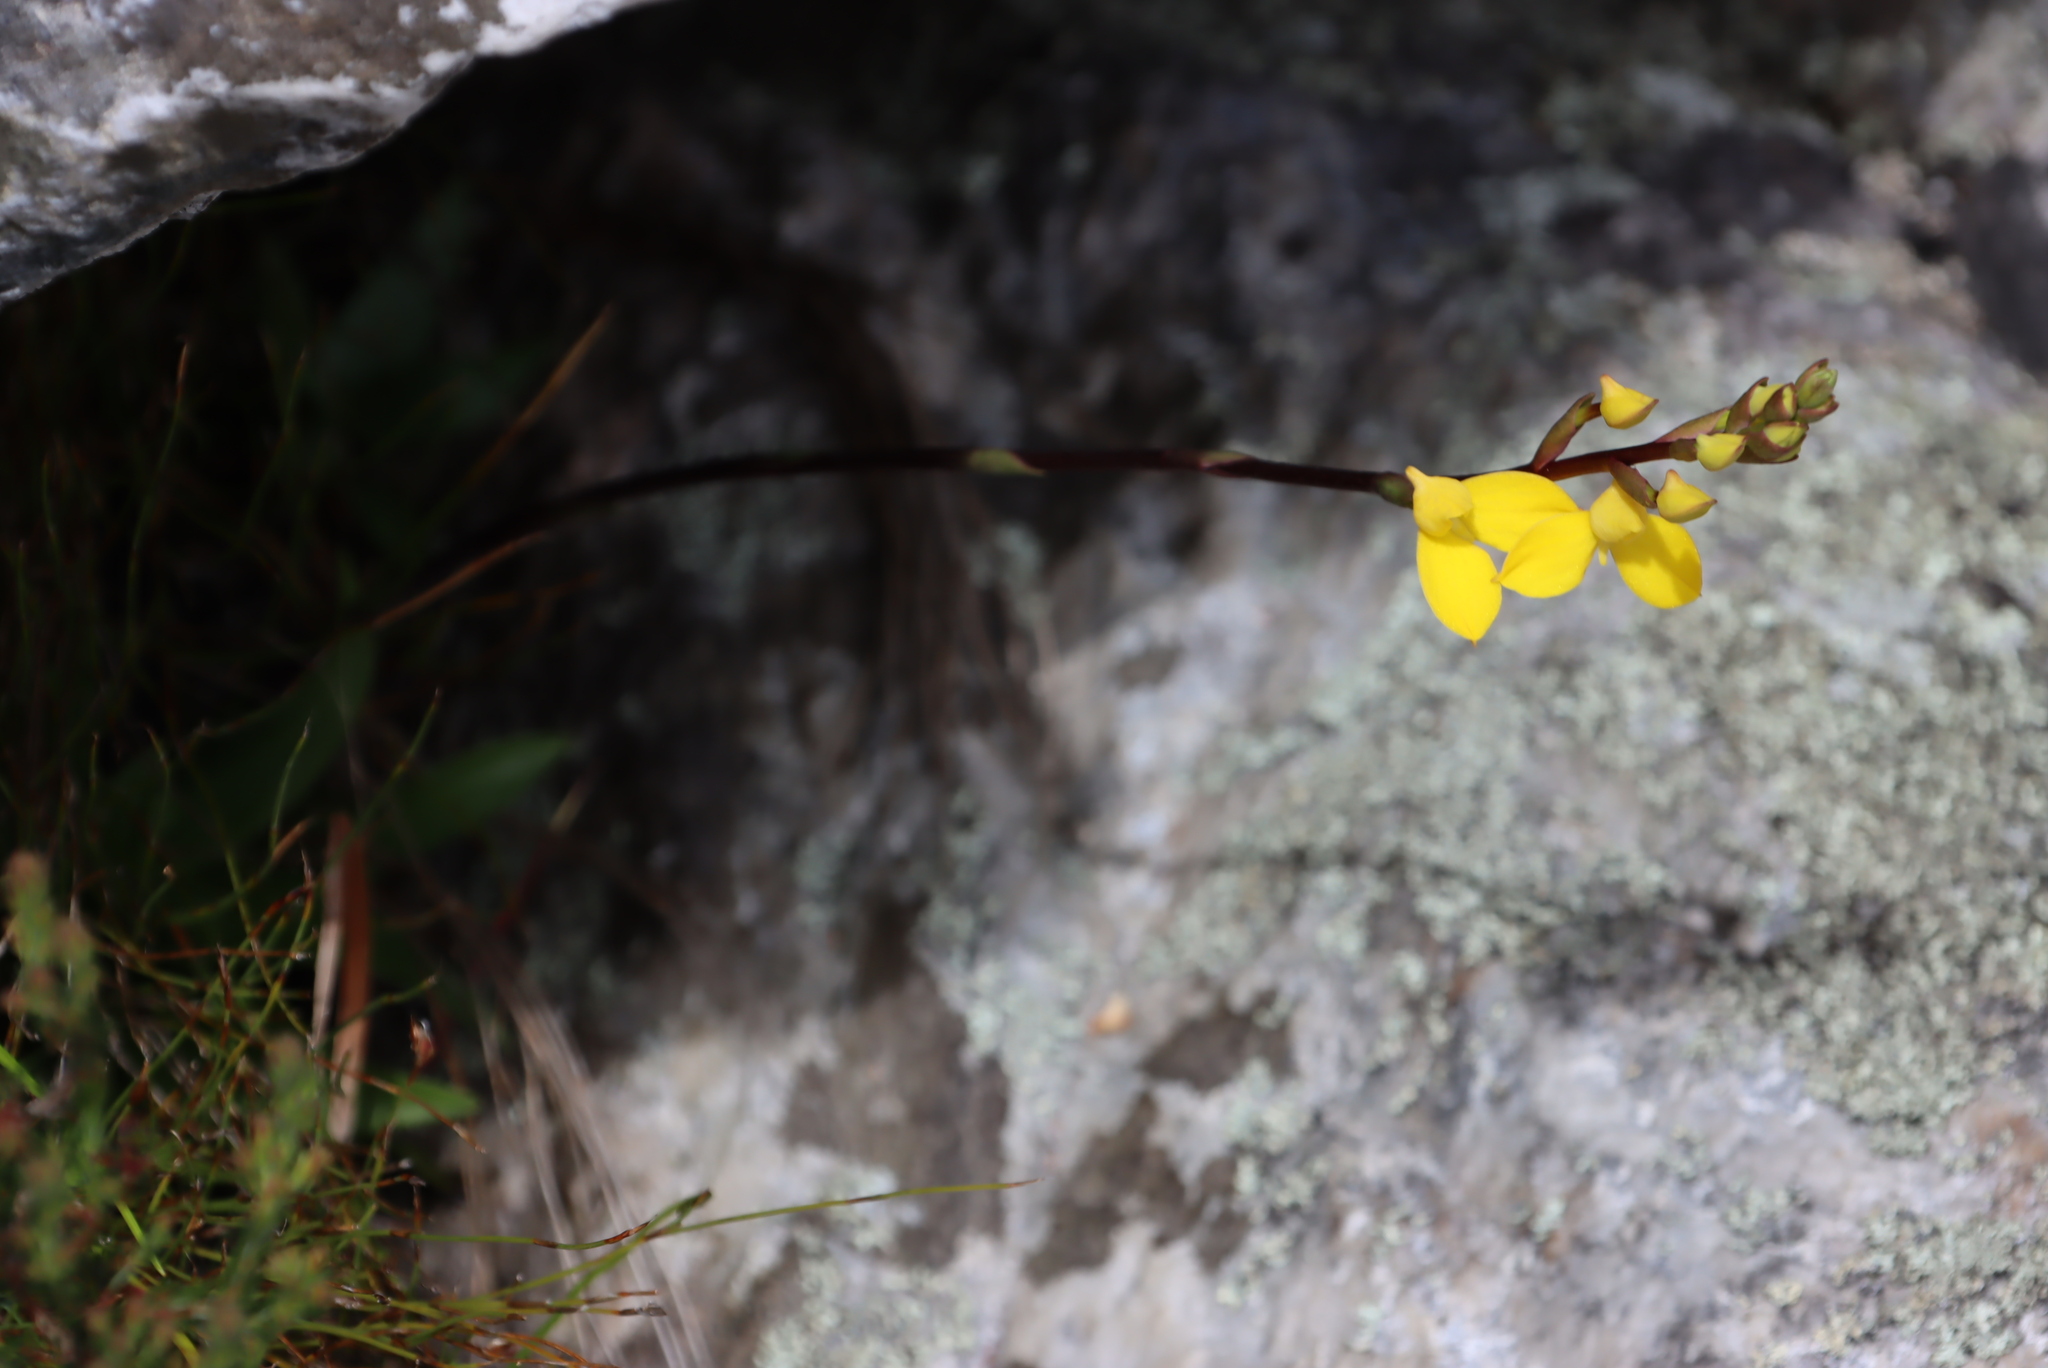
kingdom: Plantae
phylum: Tracheophyta
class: Liliopsida
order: Asparagales
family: Orchidaceae
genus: Disa
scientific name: Disa aurata
